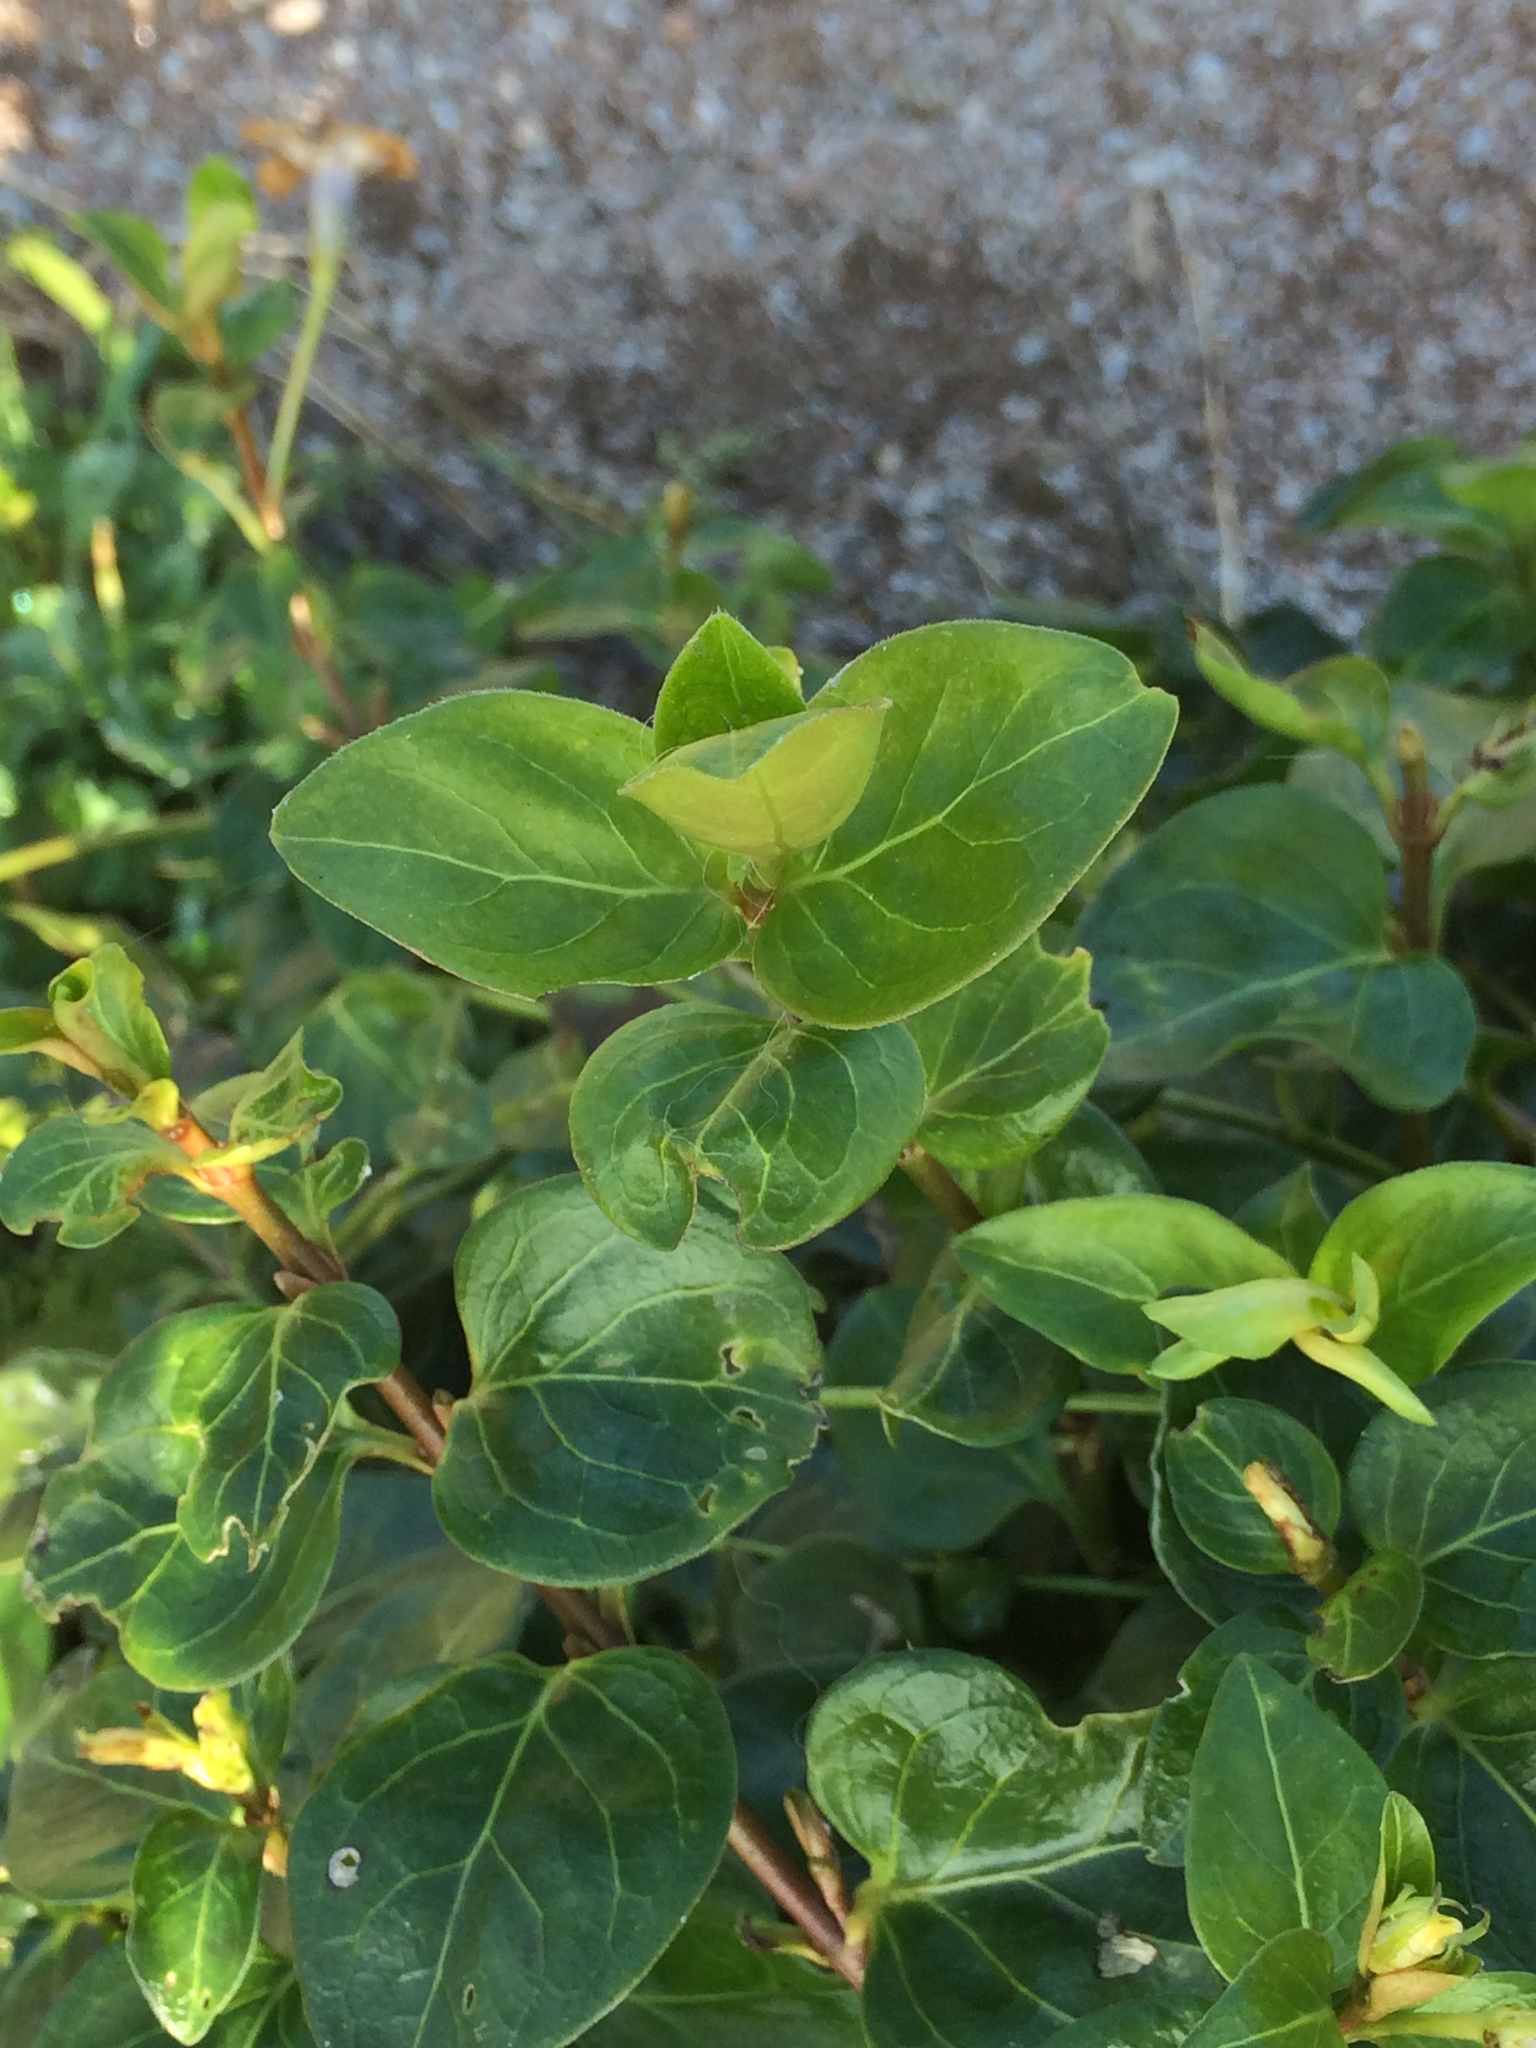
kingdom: Plantae
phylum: Tracheophyta
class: Magnoliopsida
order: Gentianales
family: Apocynaceae
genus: Vinca
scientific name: Vinca major
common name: Greater periwinkle
